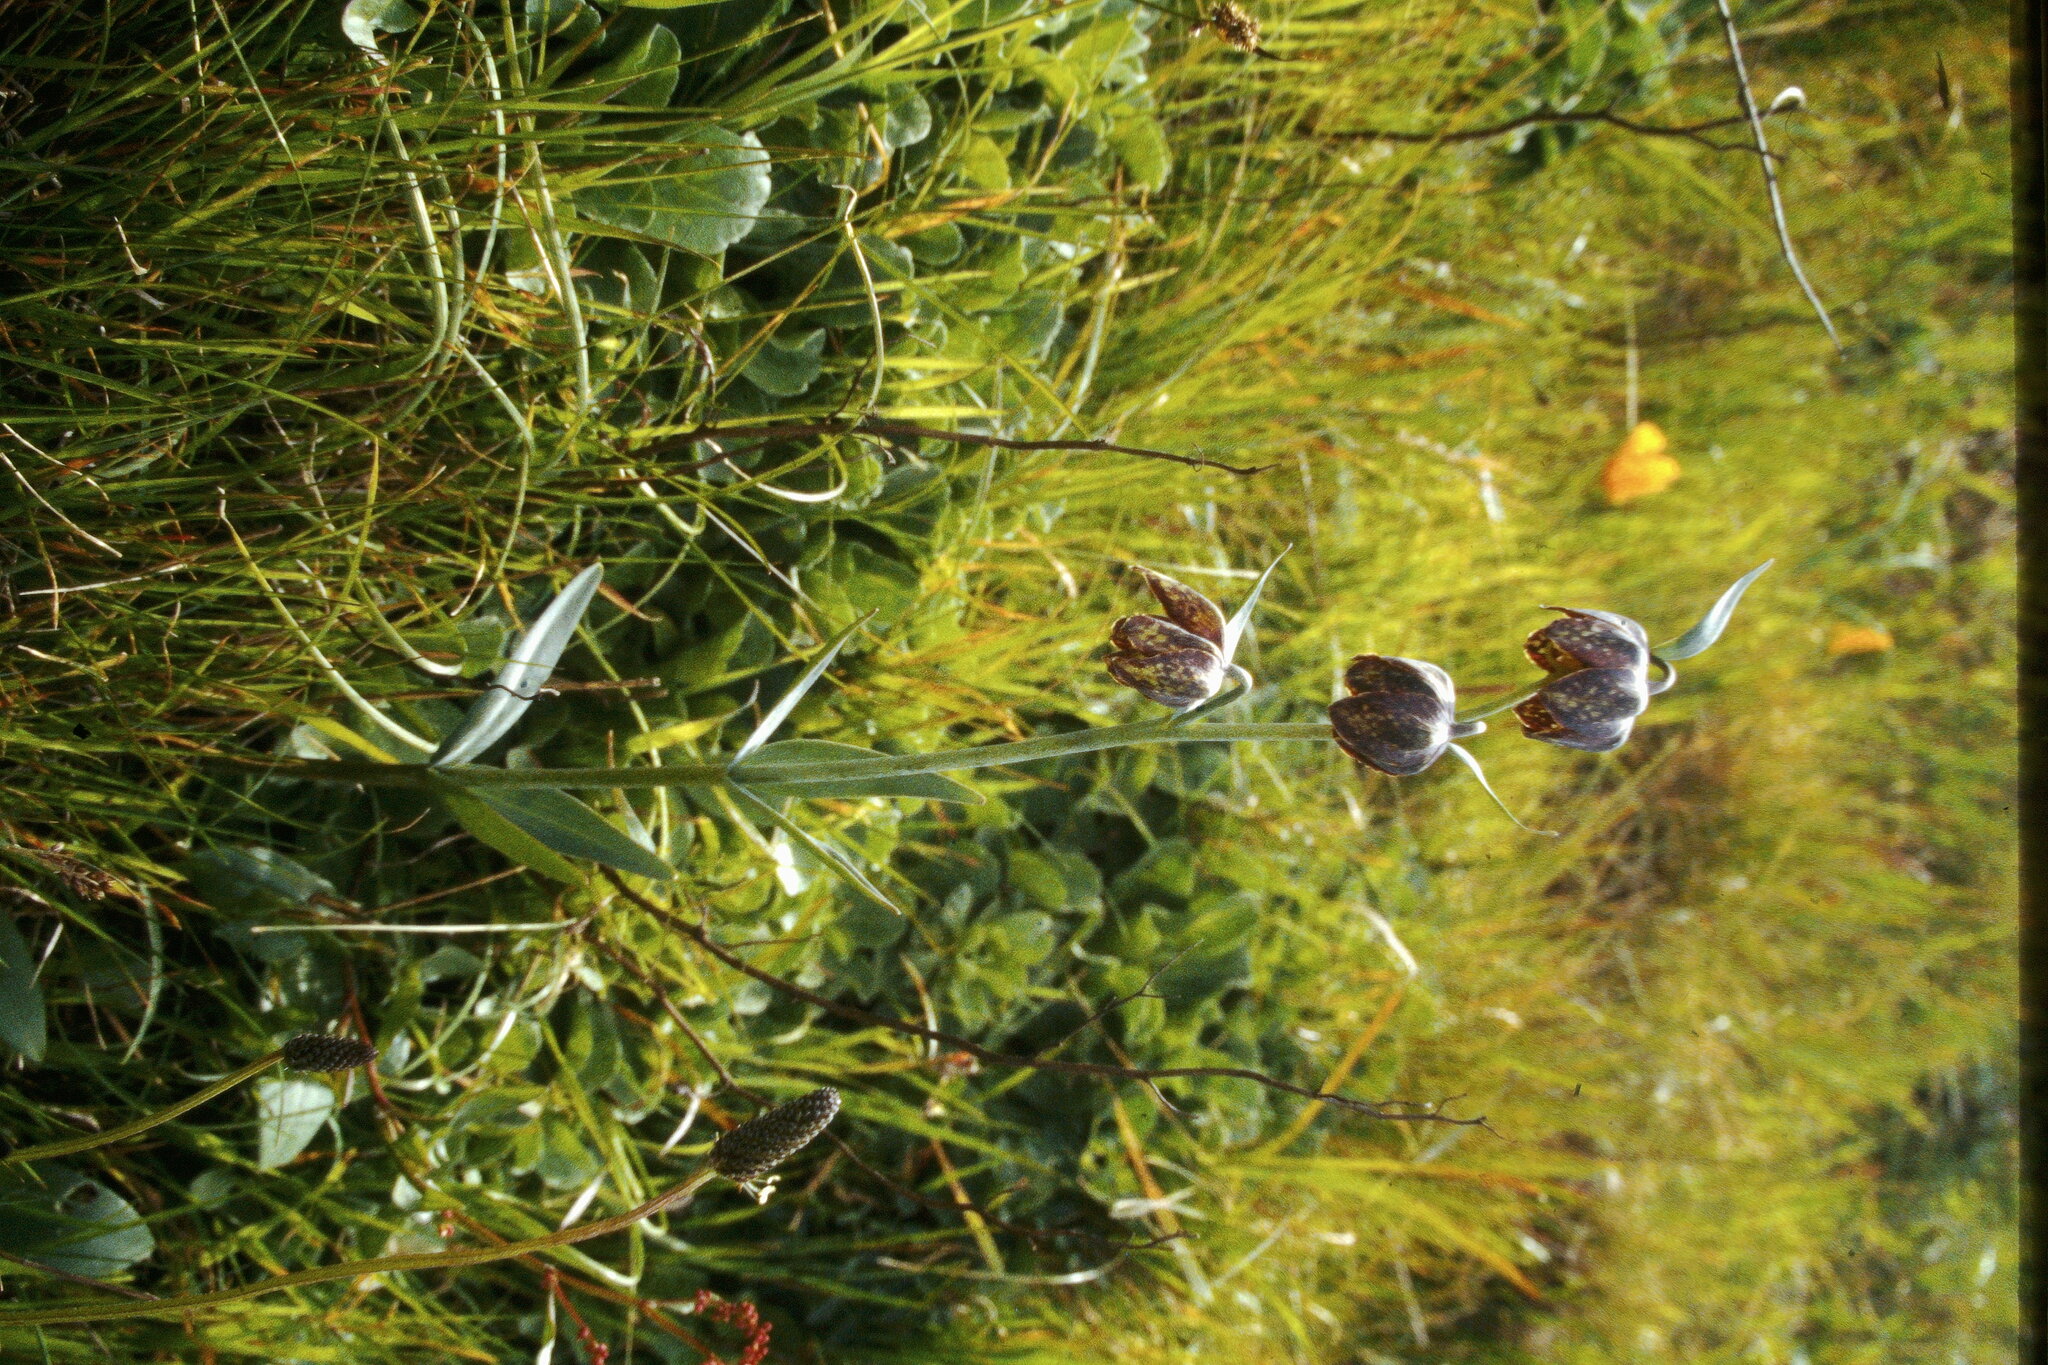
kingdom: Plantae
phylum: Tracheophyta
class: Liliopsida
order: Liliales
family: Liliaceae
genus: Fritillaria
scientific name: Fritillaria affinis
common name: Ojai fritillary
